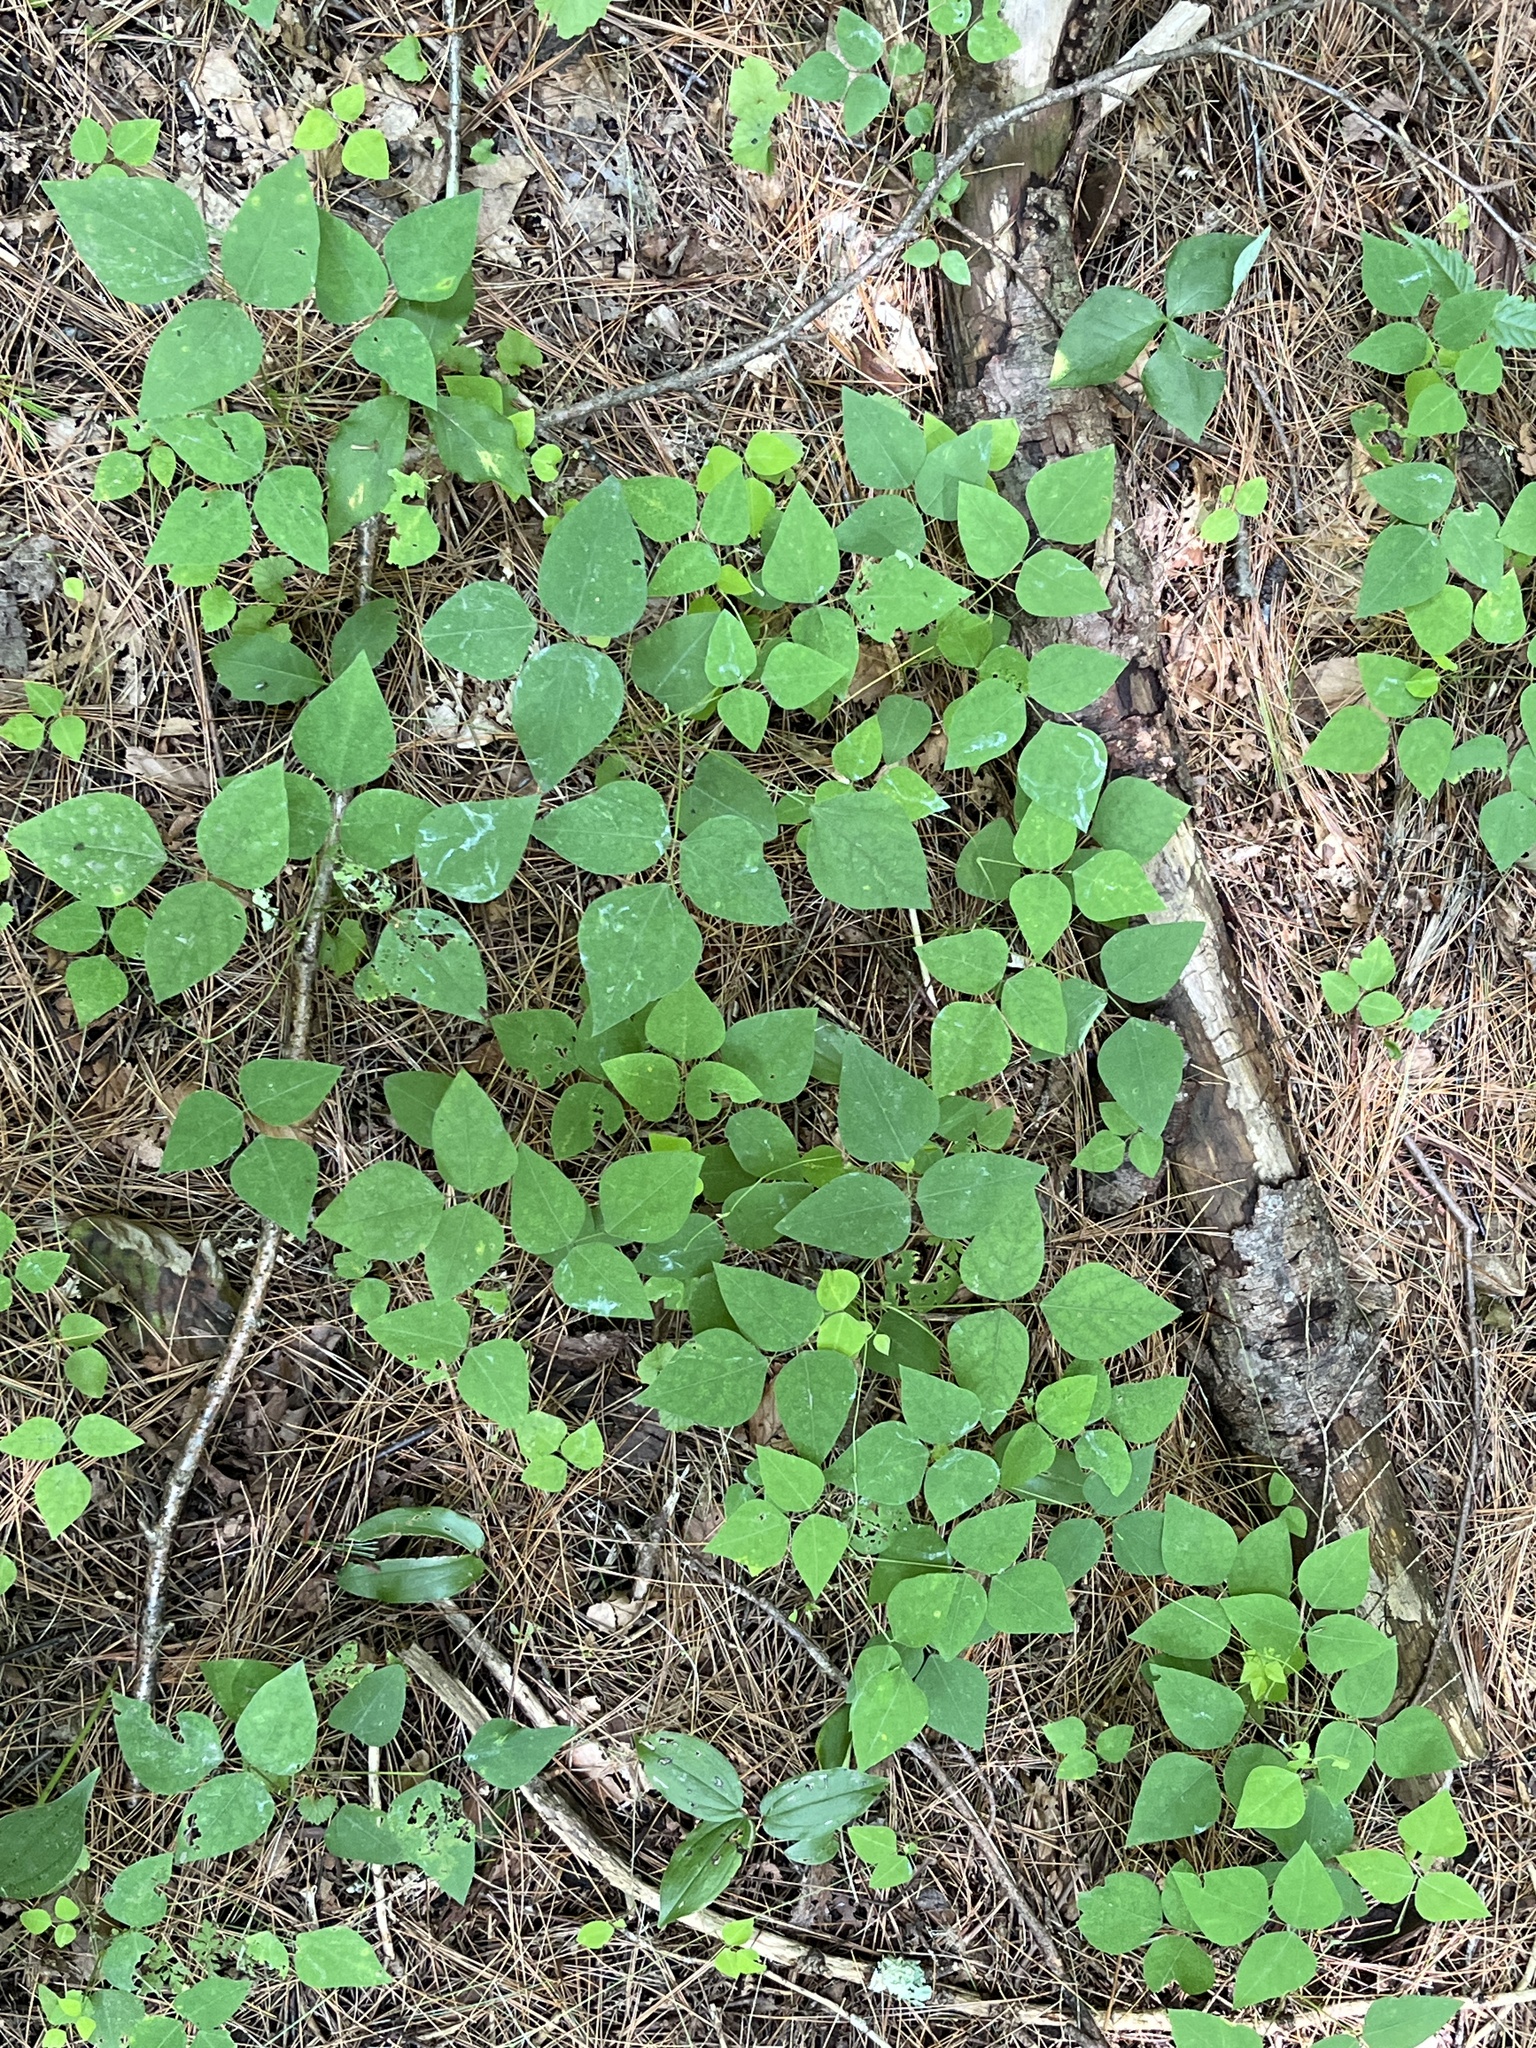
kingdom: Plantae
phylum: Tracheophyta
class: Magnoliopsida
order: Fabales
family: Fabaceae
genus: Amphicarpaea
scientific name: Amphicarpaea bracteata
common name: American hog peanut
